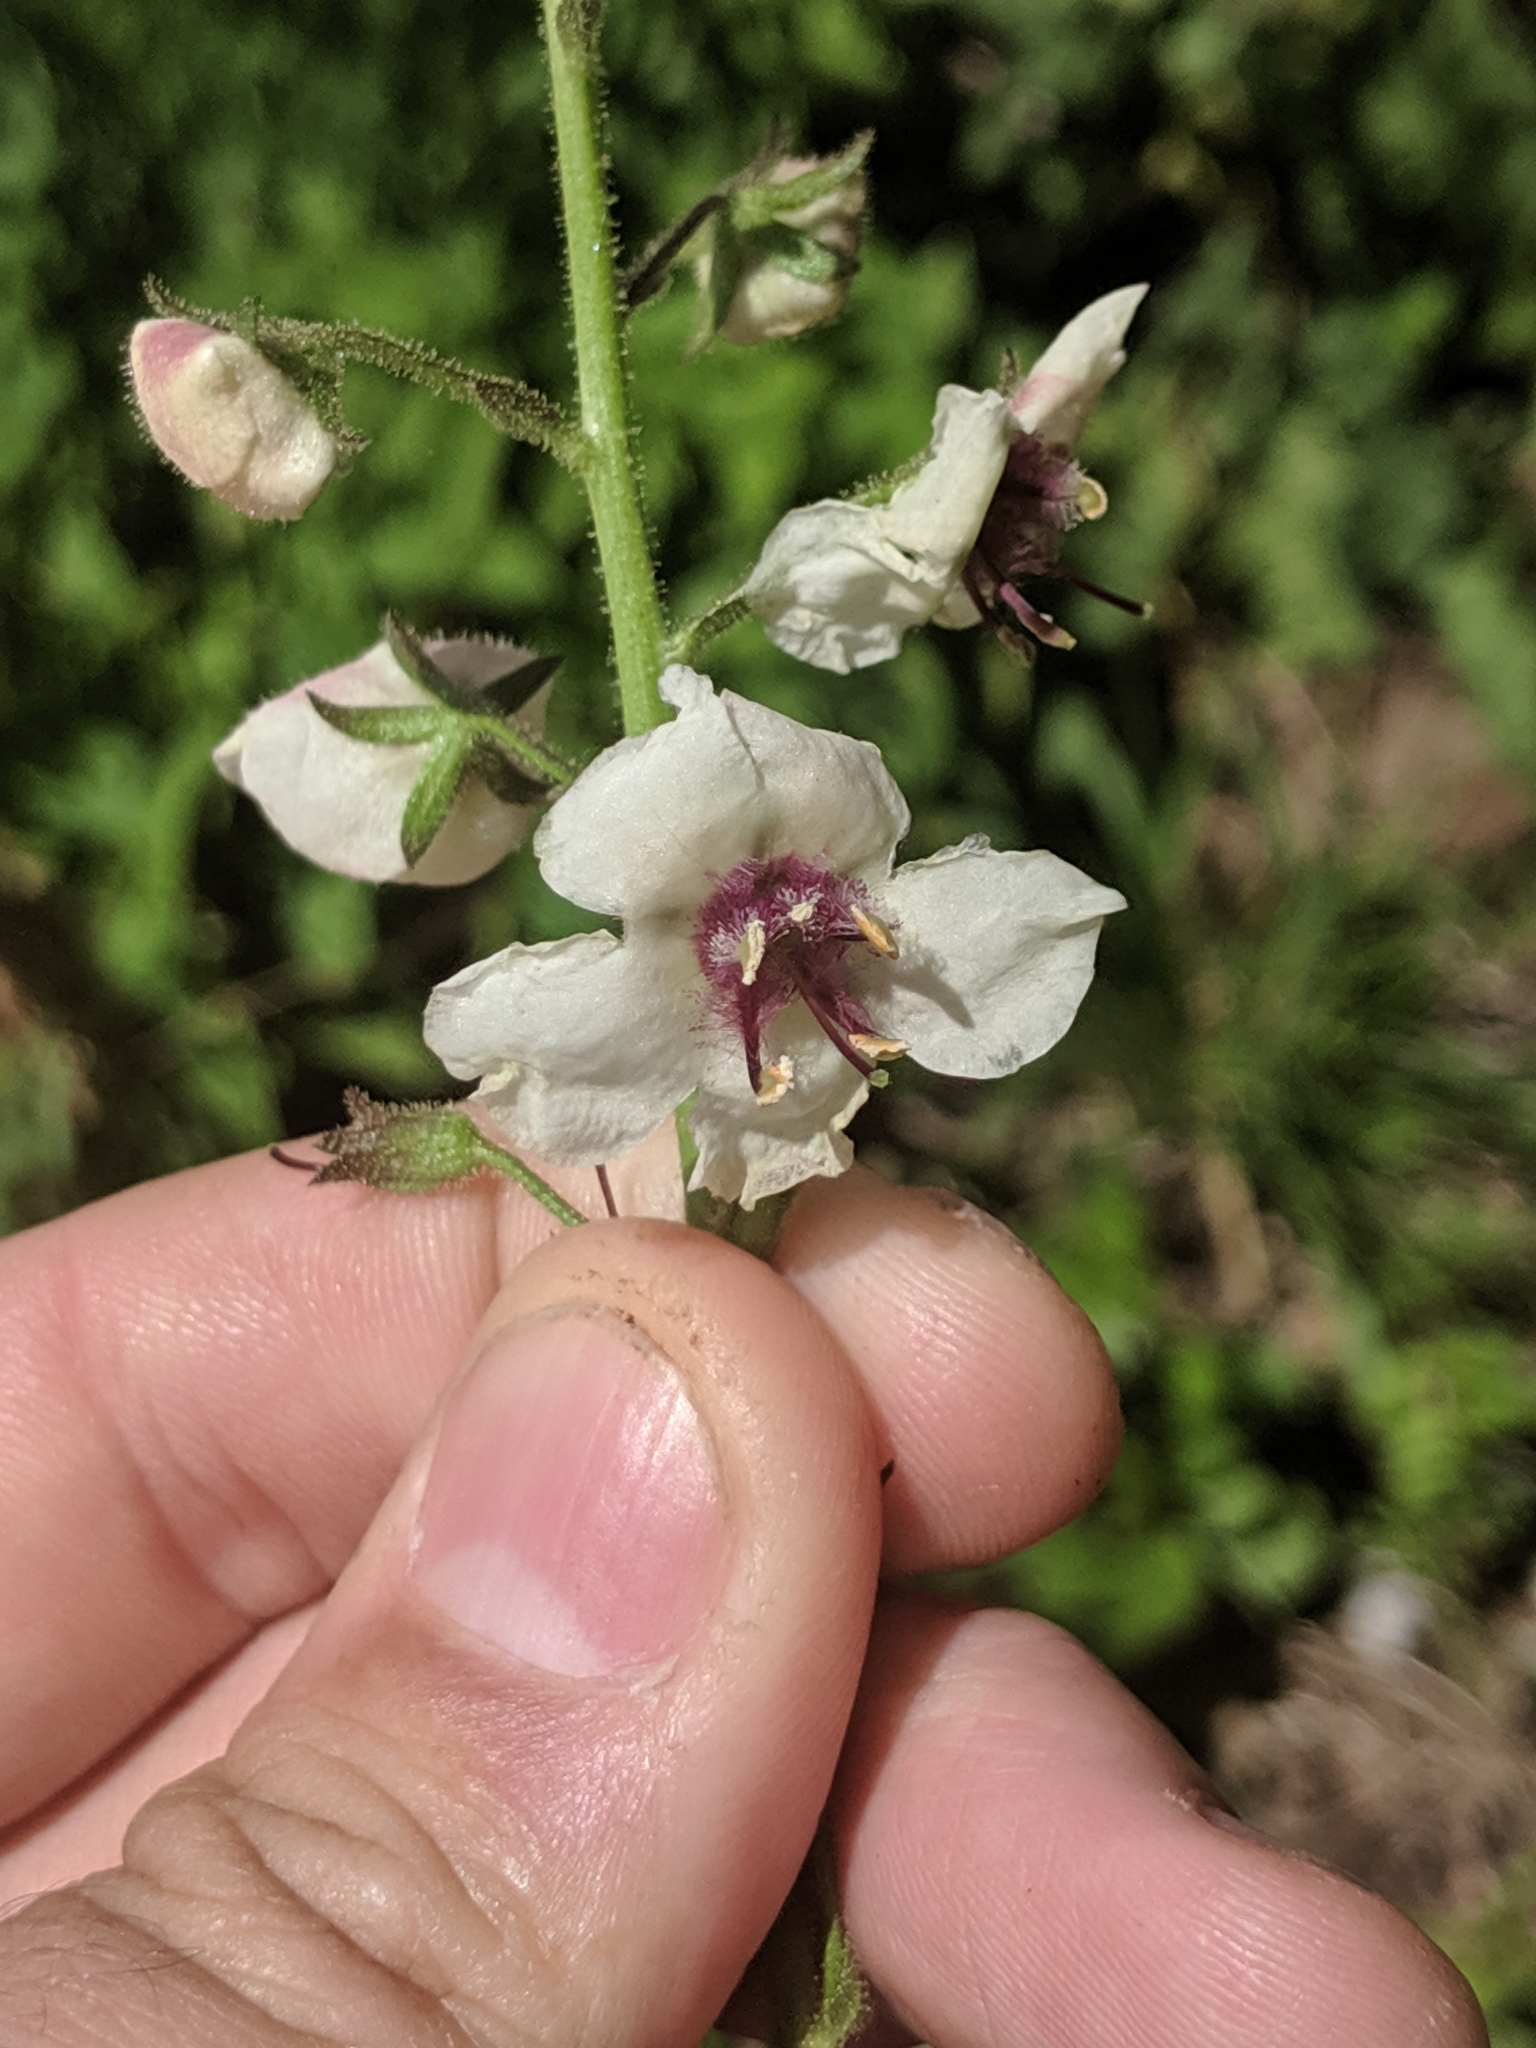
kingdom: Plantae
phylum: Tracheophyta
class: Magnoliopsida
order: Lamiales
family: Scrophulariaceae
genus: Verbascum
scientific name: Verbascum blattaria
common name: Moth mullein
